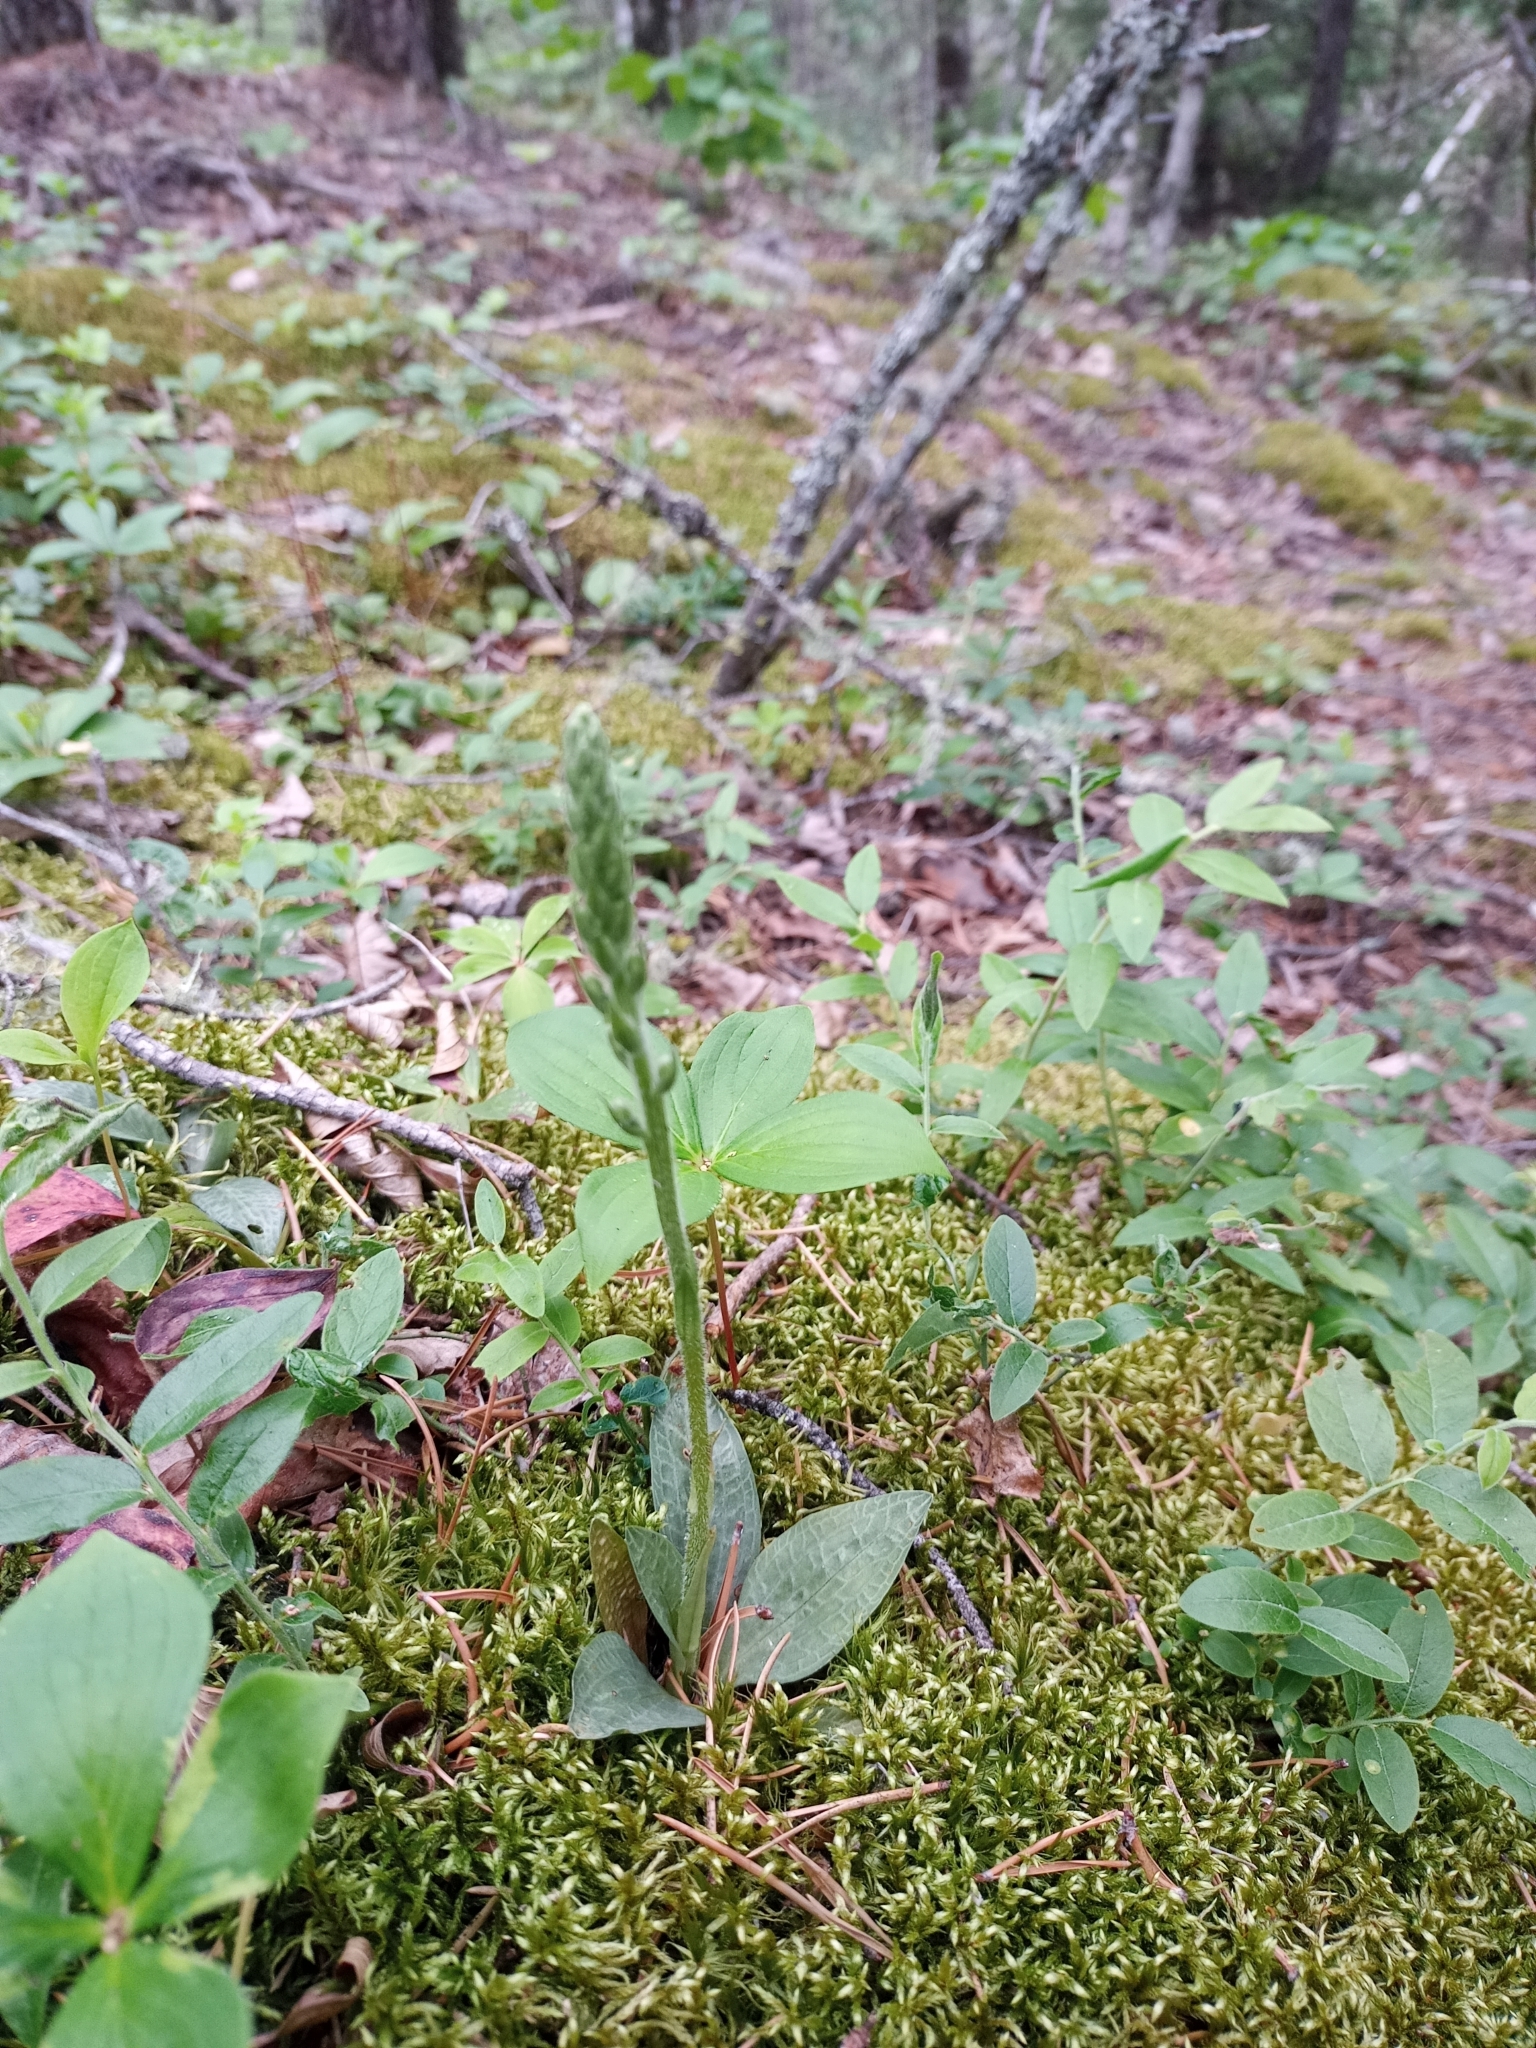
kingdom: Plantae
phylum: Tracheophyta
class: Liliopsida
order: Asparagales
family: Orchidaceae
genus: Goodyera
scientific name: Goodyera tesselata
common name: Checkered rattlesnake-plantain
